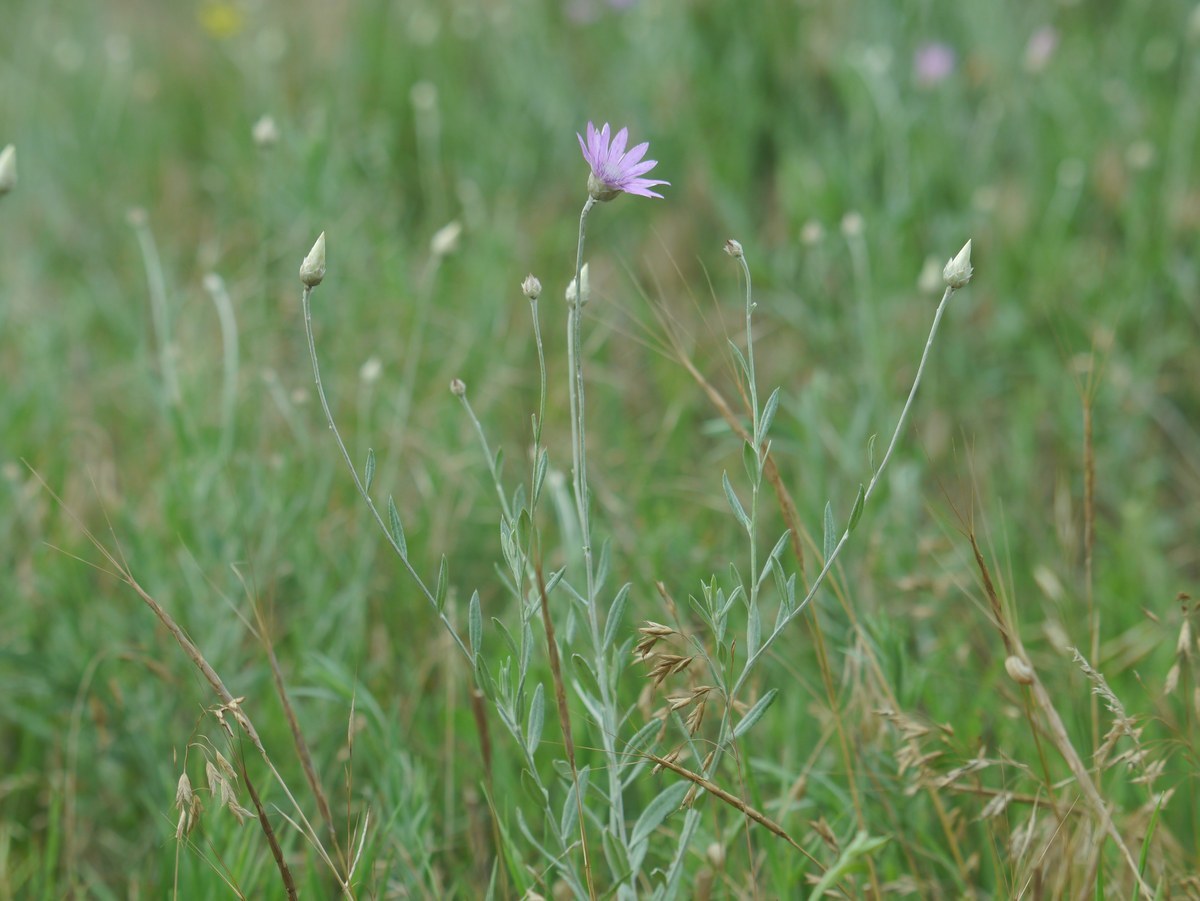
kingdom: Plantae
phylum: Tracheophyta
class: Magnoliopsida
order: Asterales
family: Asteraceae
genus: Xeranthemum
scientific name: Xeranthemum annuum
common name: Immortelle
